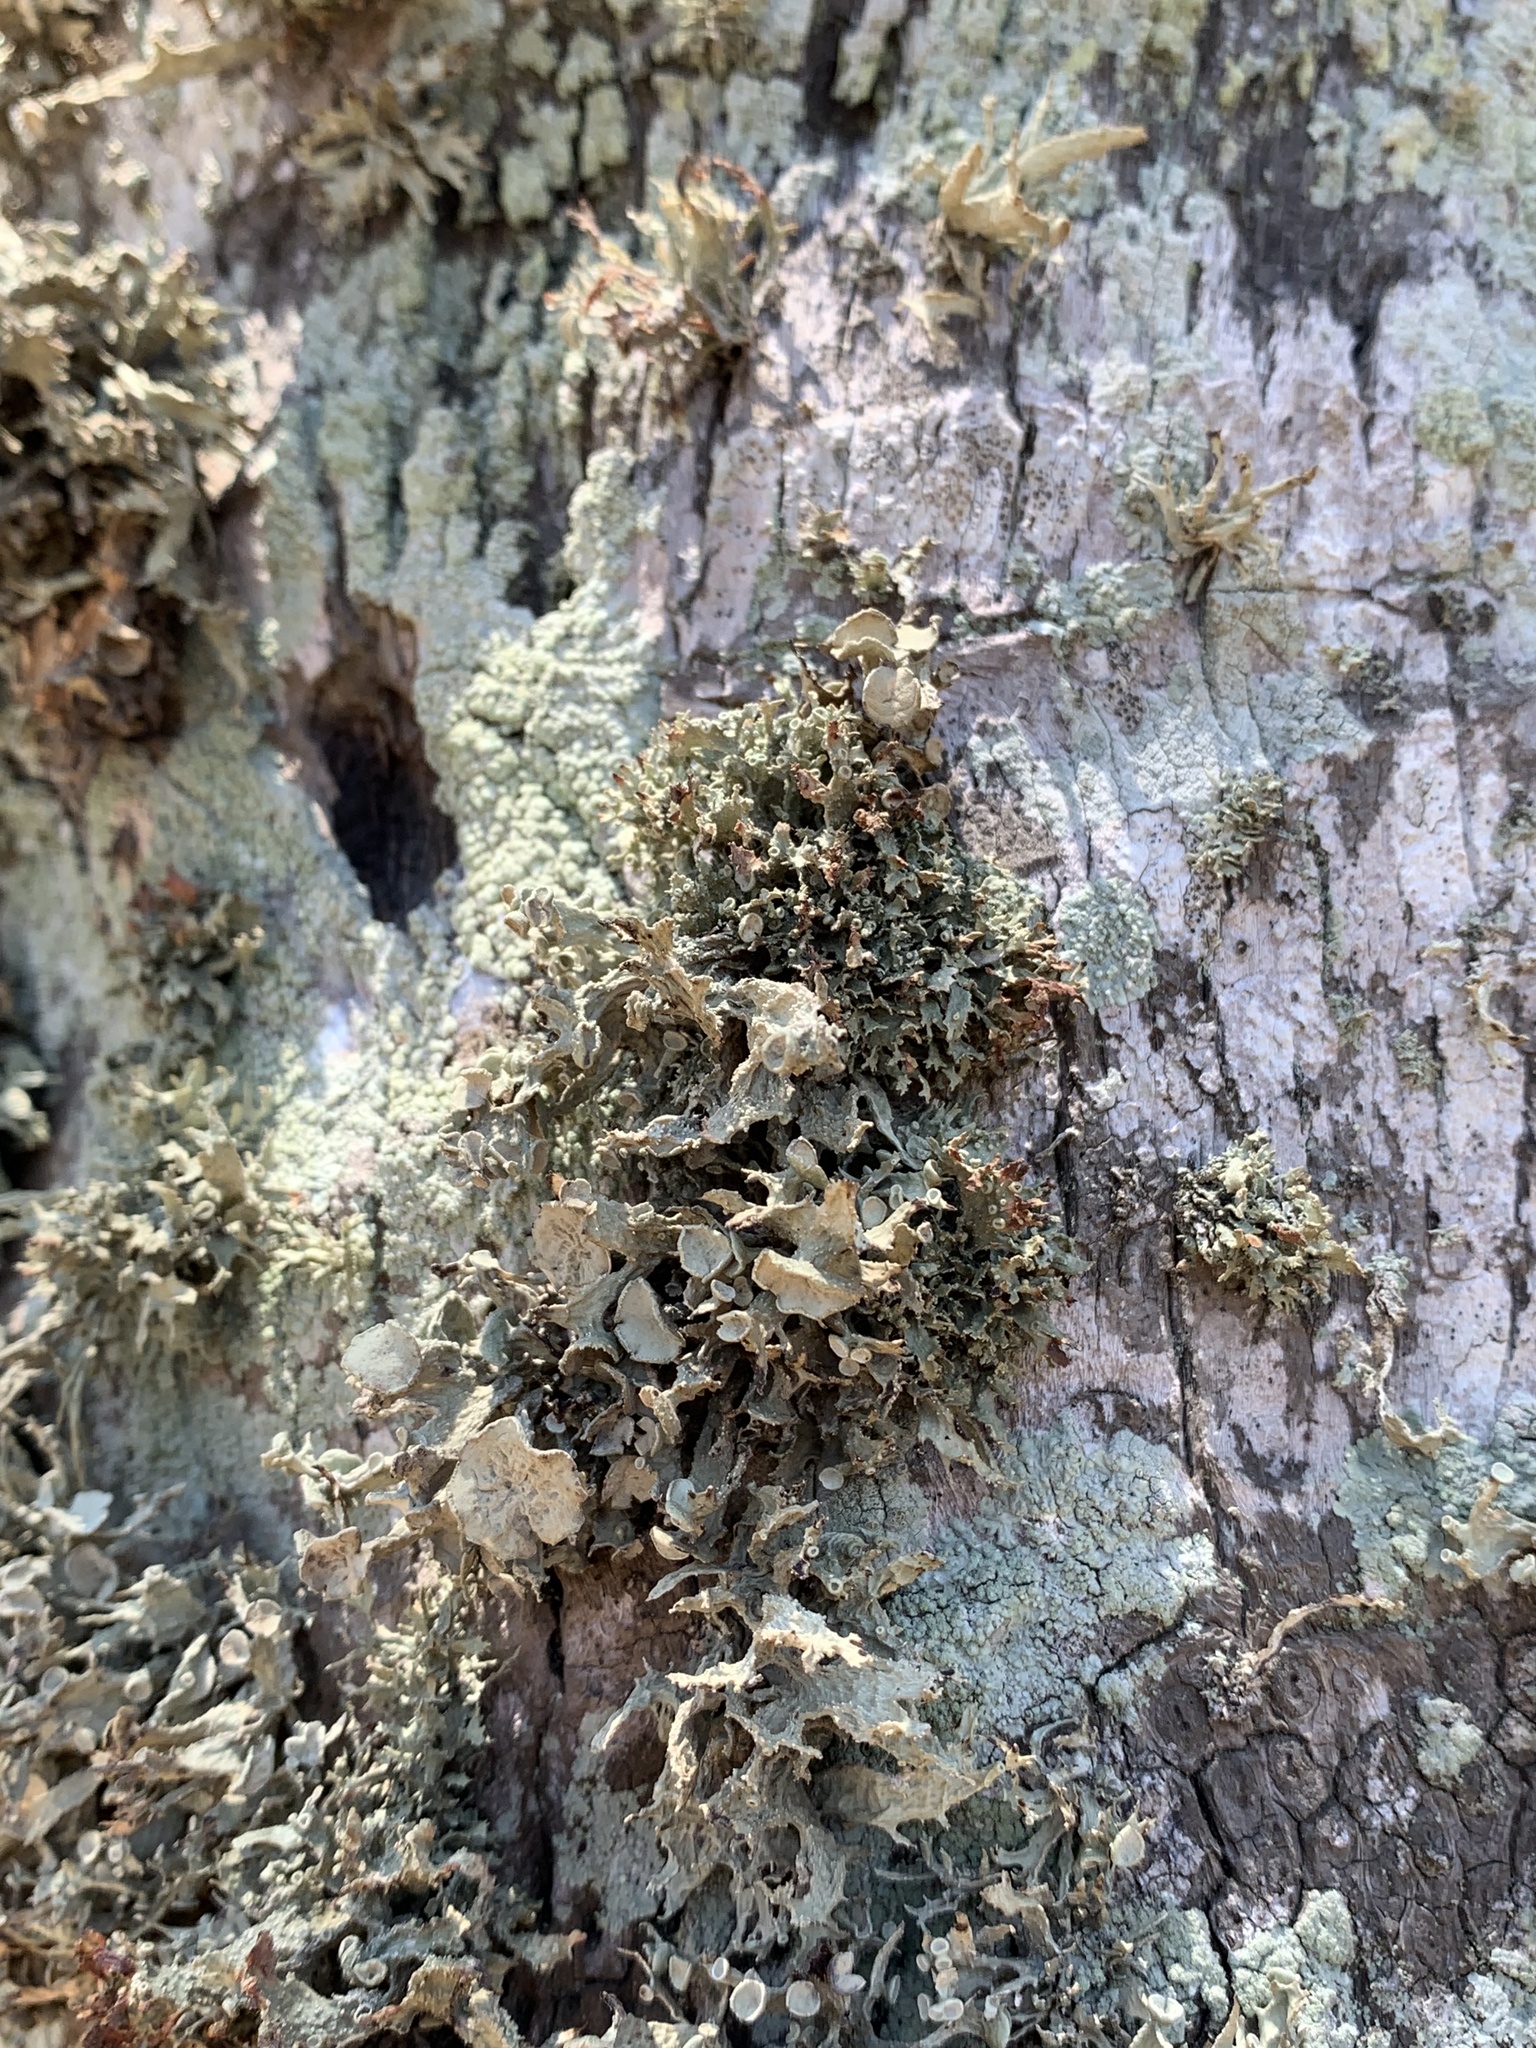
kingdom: Fungi
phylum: Ascomycota
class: Lecanoromycetes
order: Lecanorales
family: Ramalinaceae
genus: Ramalina
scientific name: Ramalina complanata
